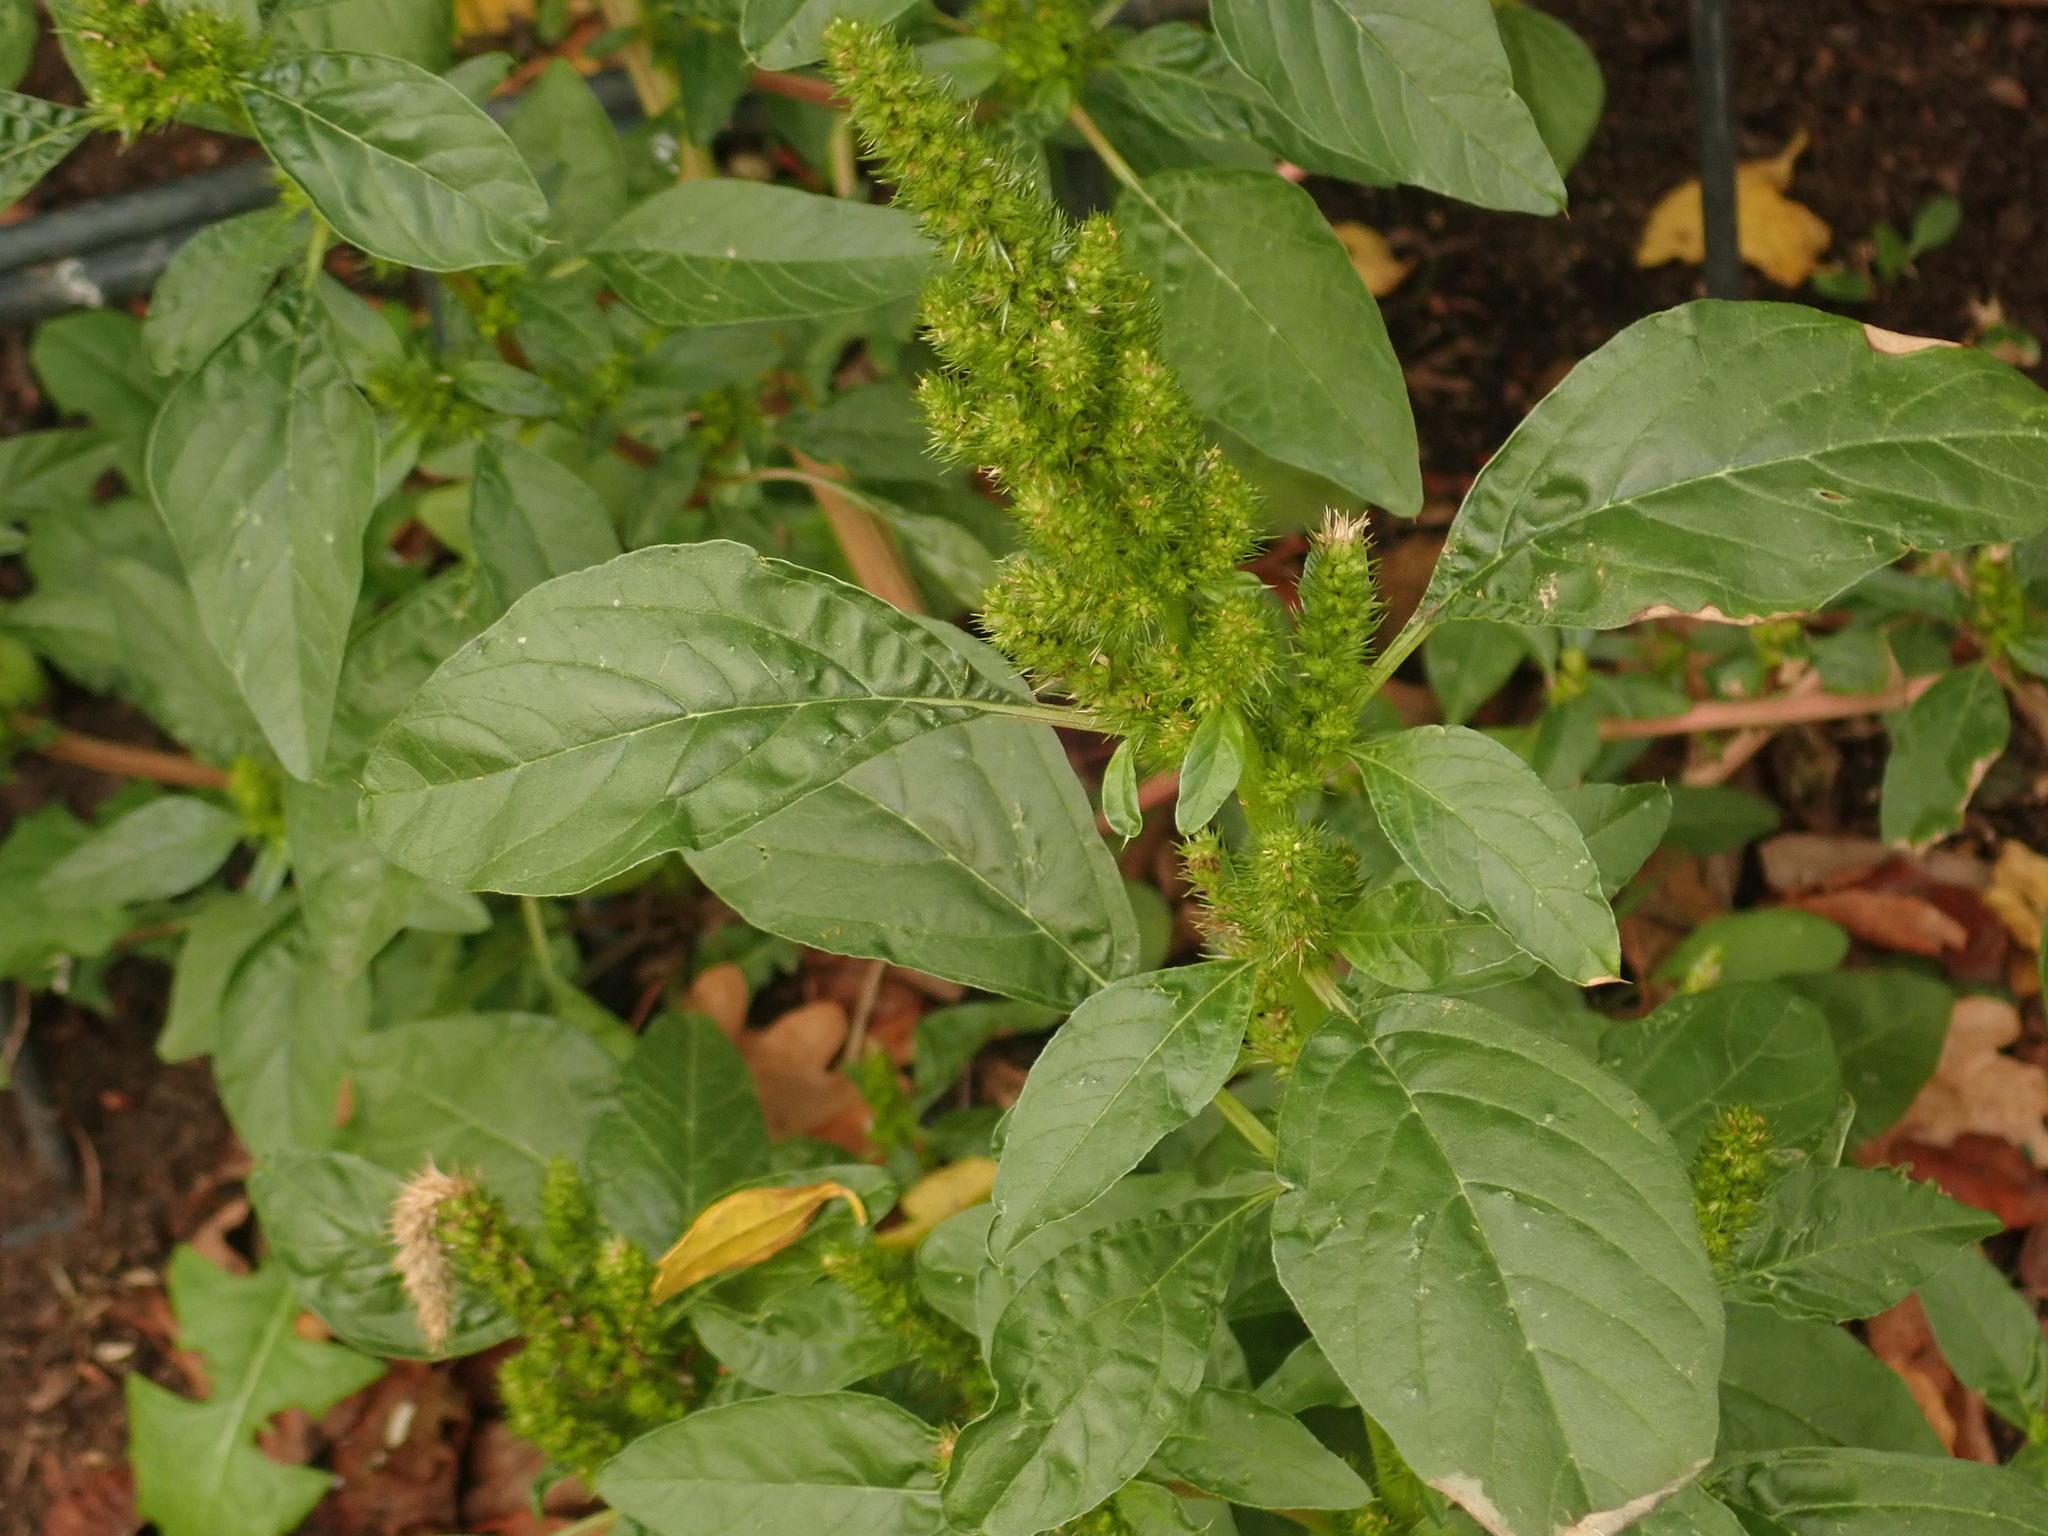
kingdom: Plantae
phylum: Tracheophyta
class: Magnoliopsida
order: Caryophyllales
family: Amaranthaceae
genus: Amaranthus
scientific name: Amaranthus retroflexus
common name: Redroot amaranth
